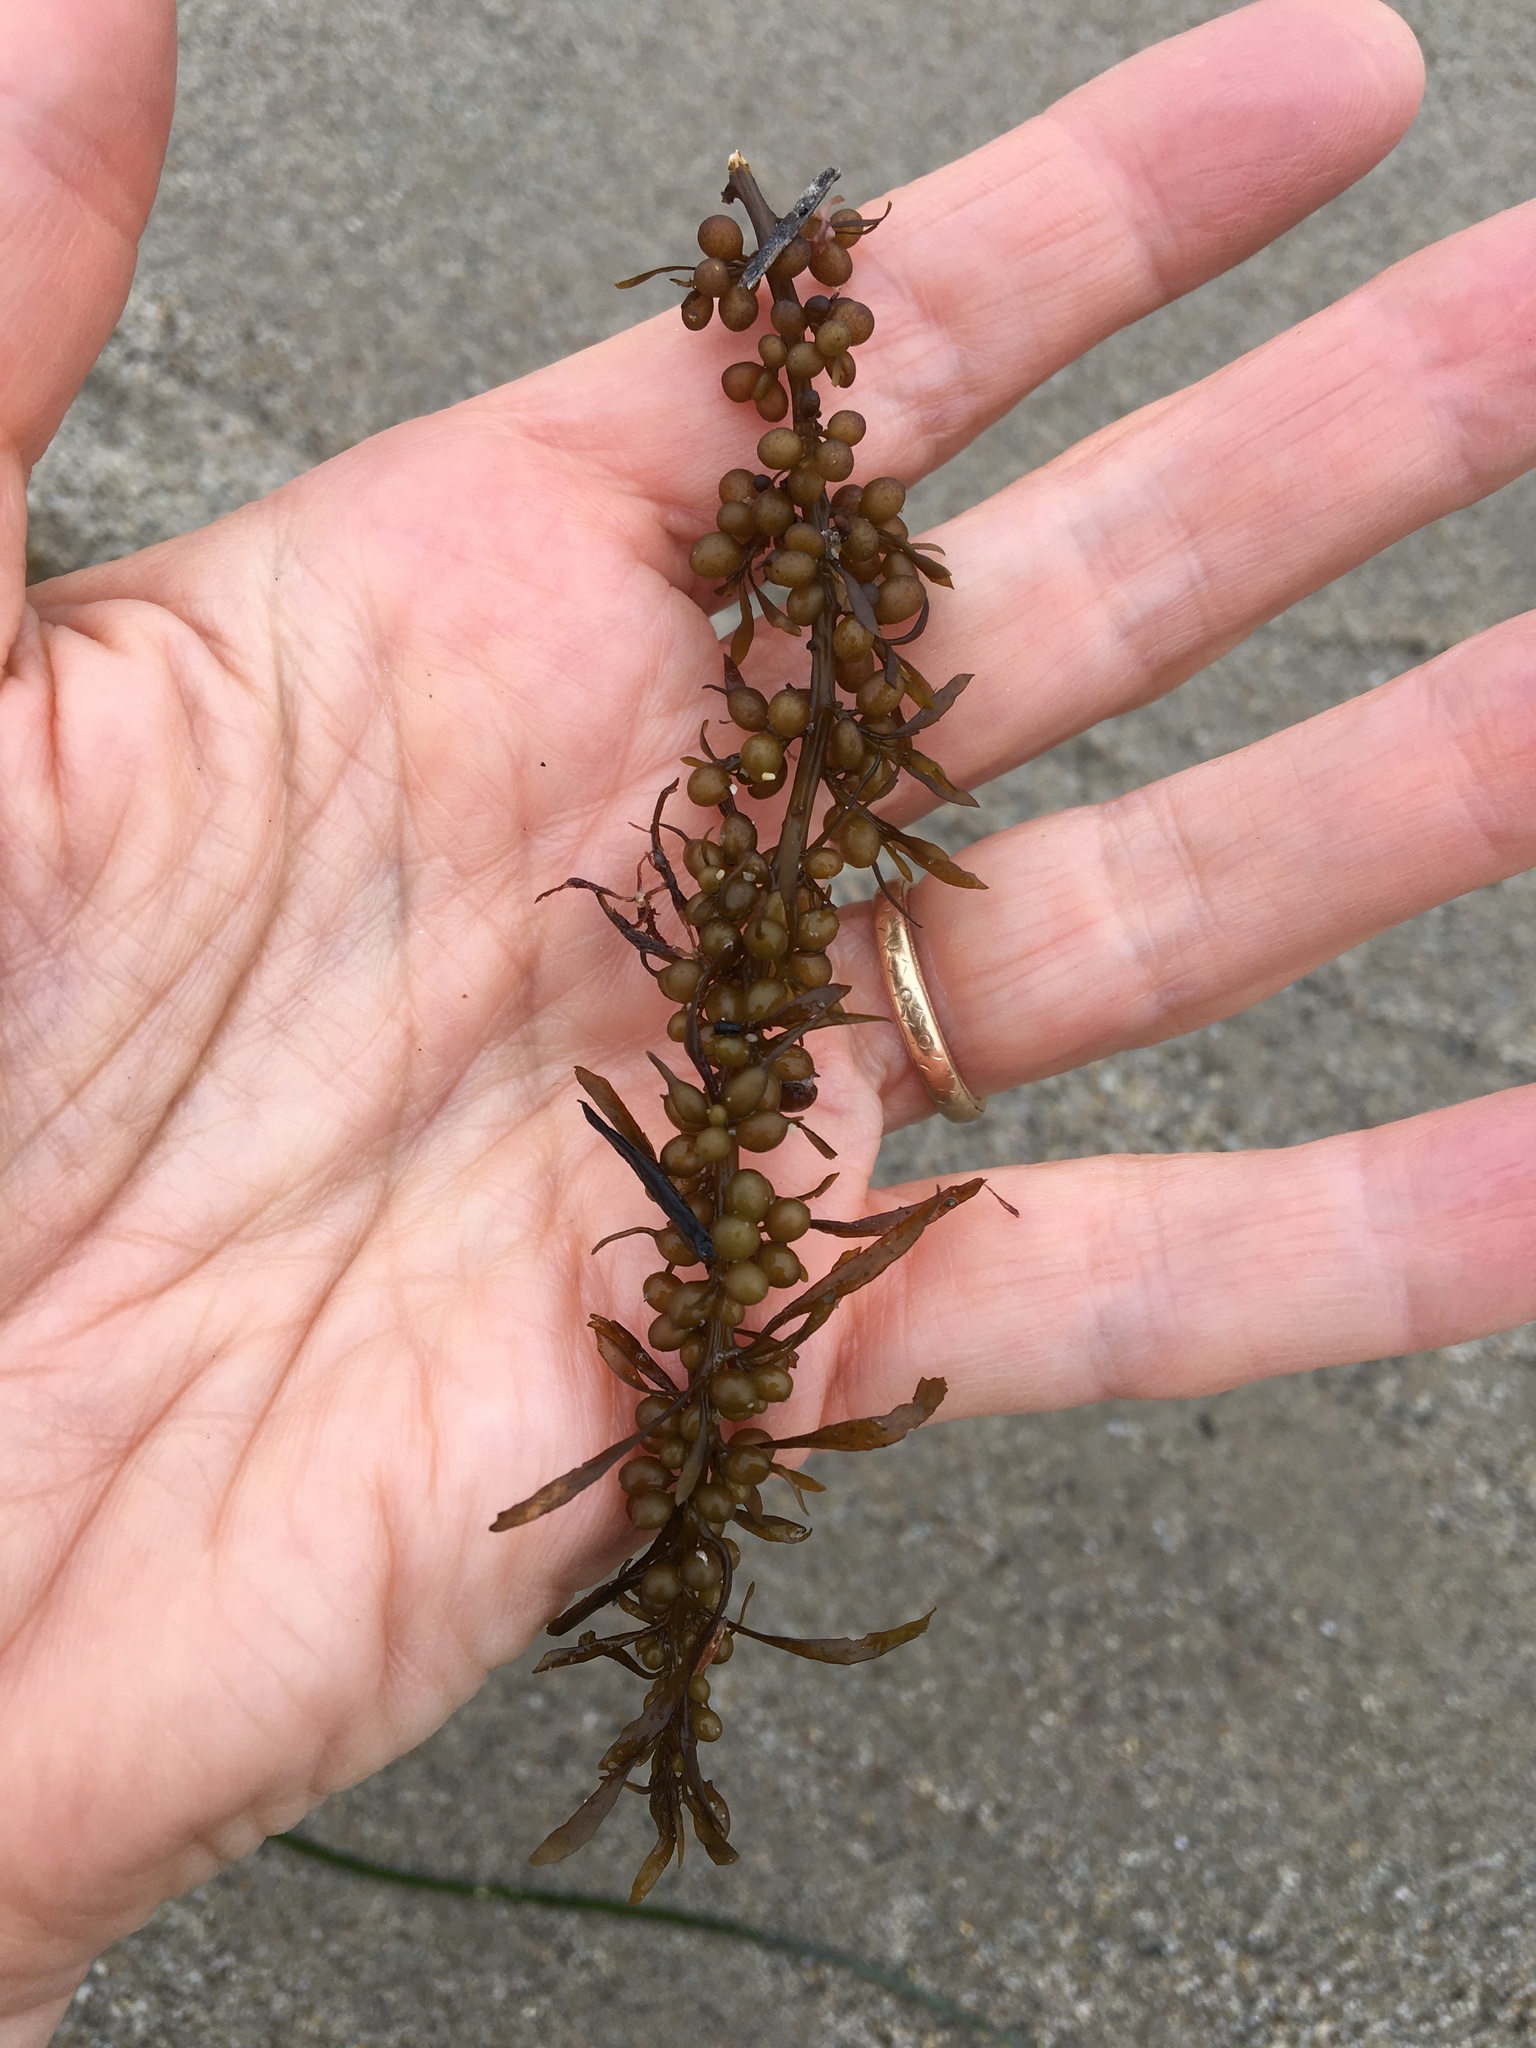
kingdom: Chromista
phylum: Ochrophyta
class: Phaeophyceae
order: Fucales
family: Sargassaceae
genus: Sargassum
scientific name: Sargassum muticum
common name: Japweed
